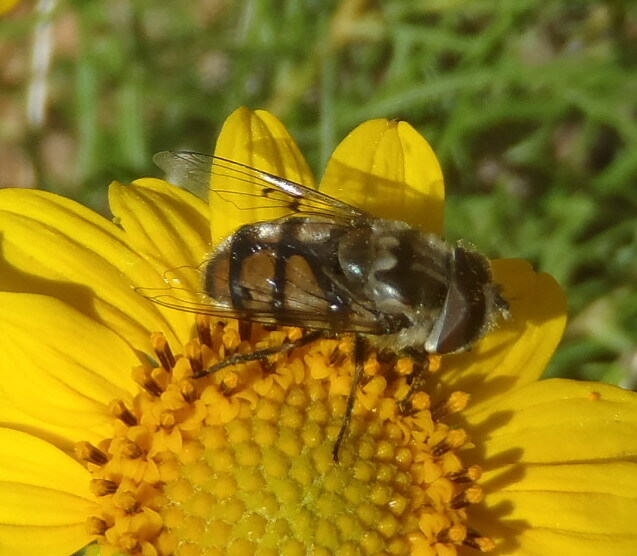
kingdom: Animalia
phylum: Arthropoda
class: Insecta
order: Diptera
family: Syrphidae
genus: Copestylum
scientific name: Copestylum avidum
